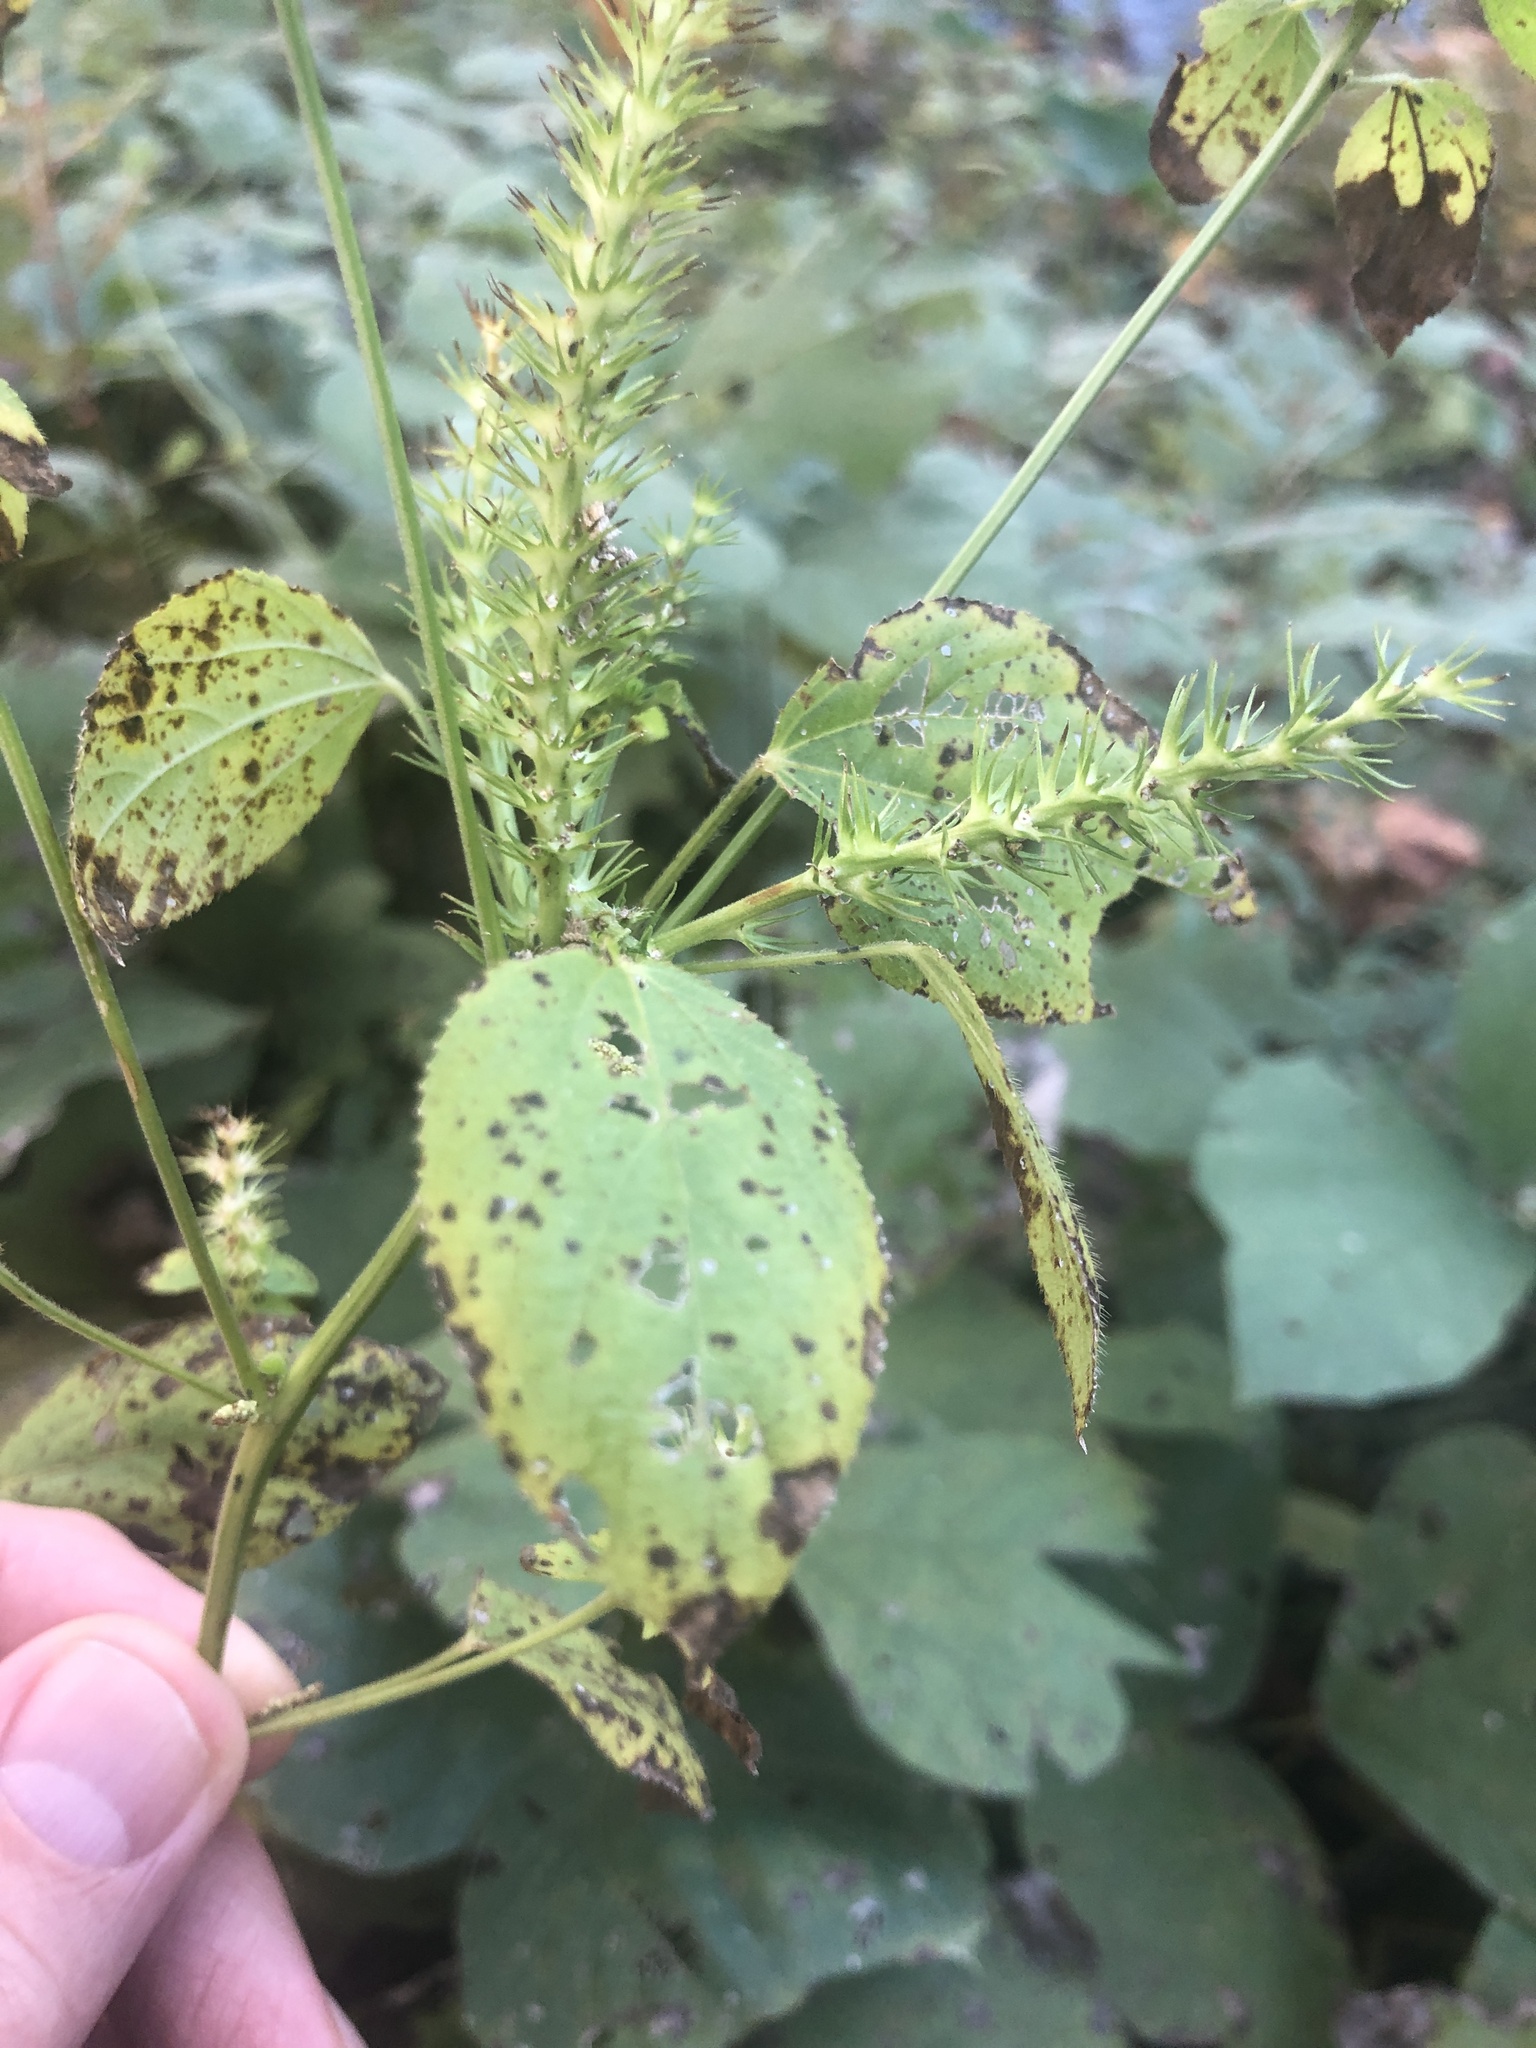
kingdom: Plantae
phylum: Tracheophyta
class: Magnoliopsida
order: Malpighiales
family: Euphorbiaceae
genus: Acalypha
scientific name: Acalypha ostryifolia
